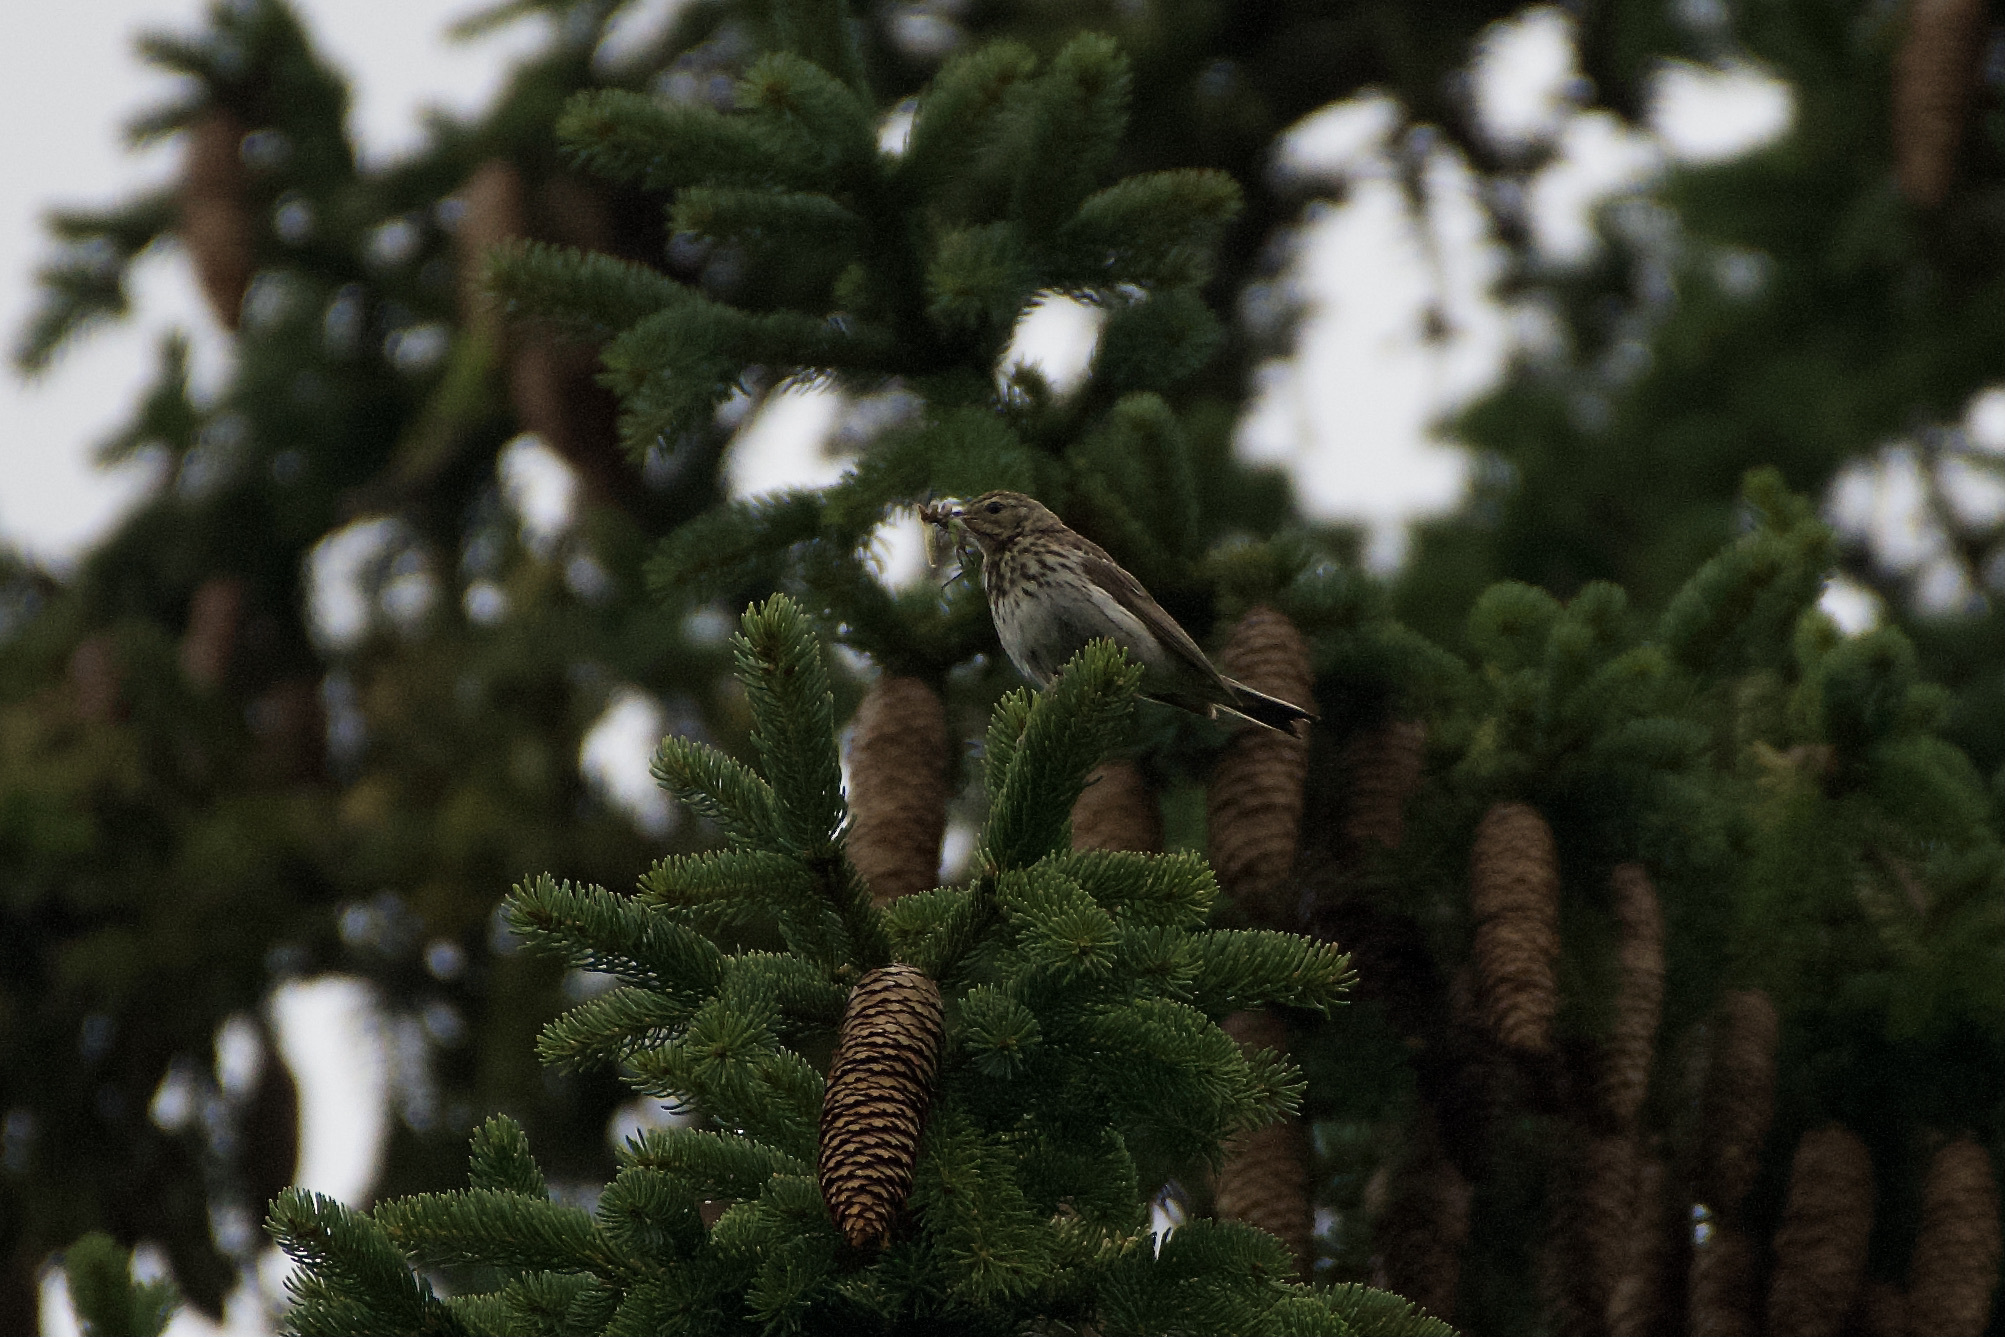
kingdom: Animalia
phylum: Chordata
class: Aves
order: Passeriformes
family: Motacillidae
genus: Anthus
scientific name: Anthus trivialis
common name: Tree pipit
